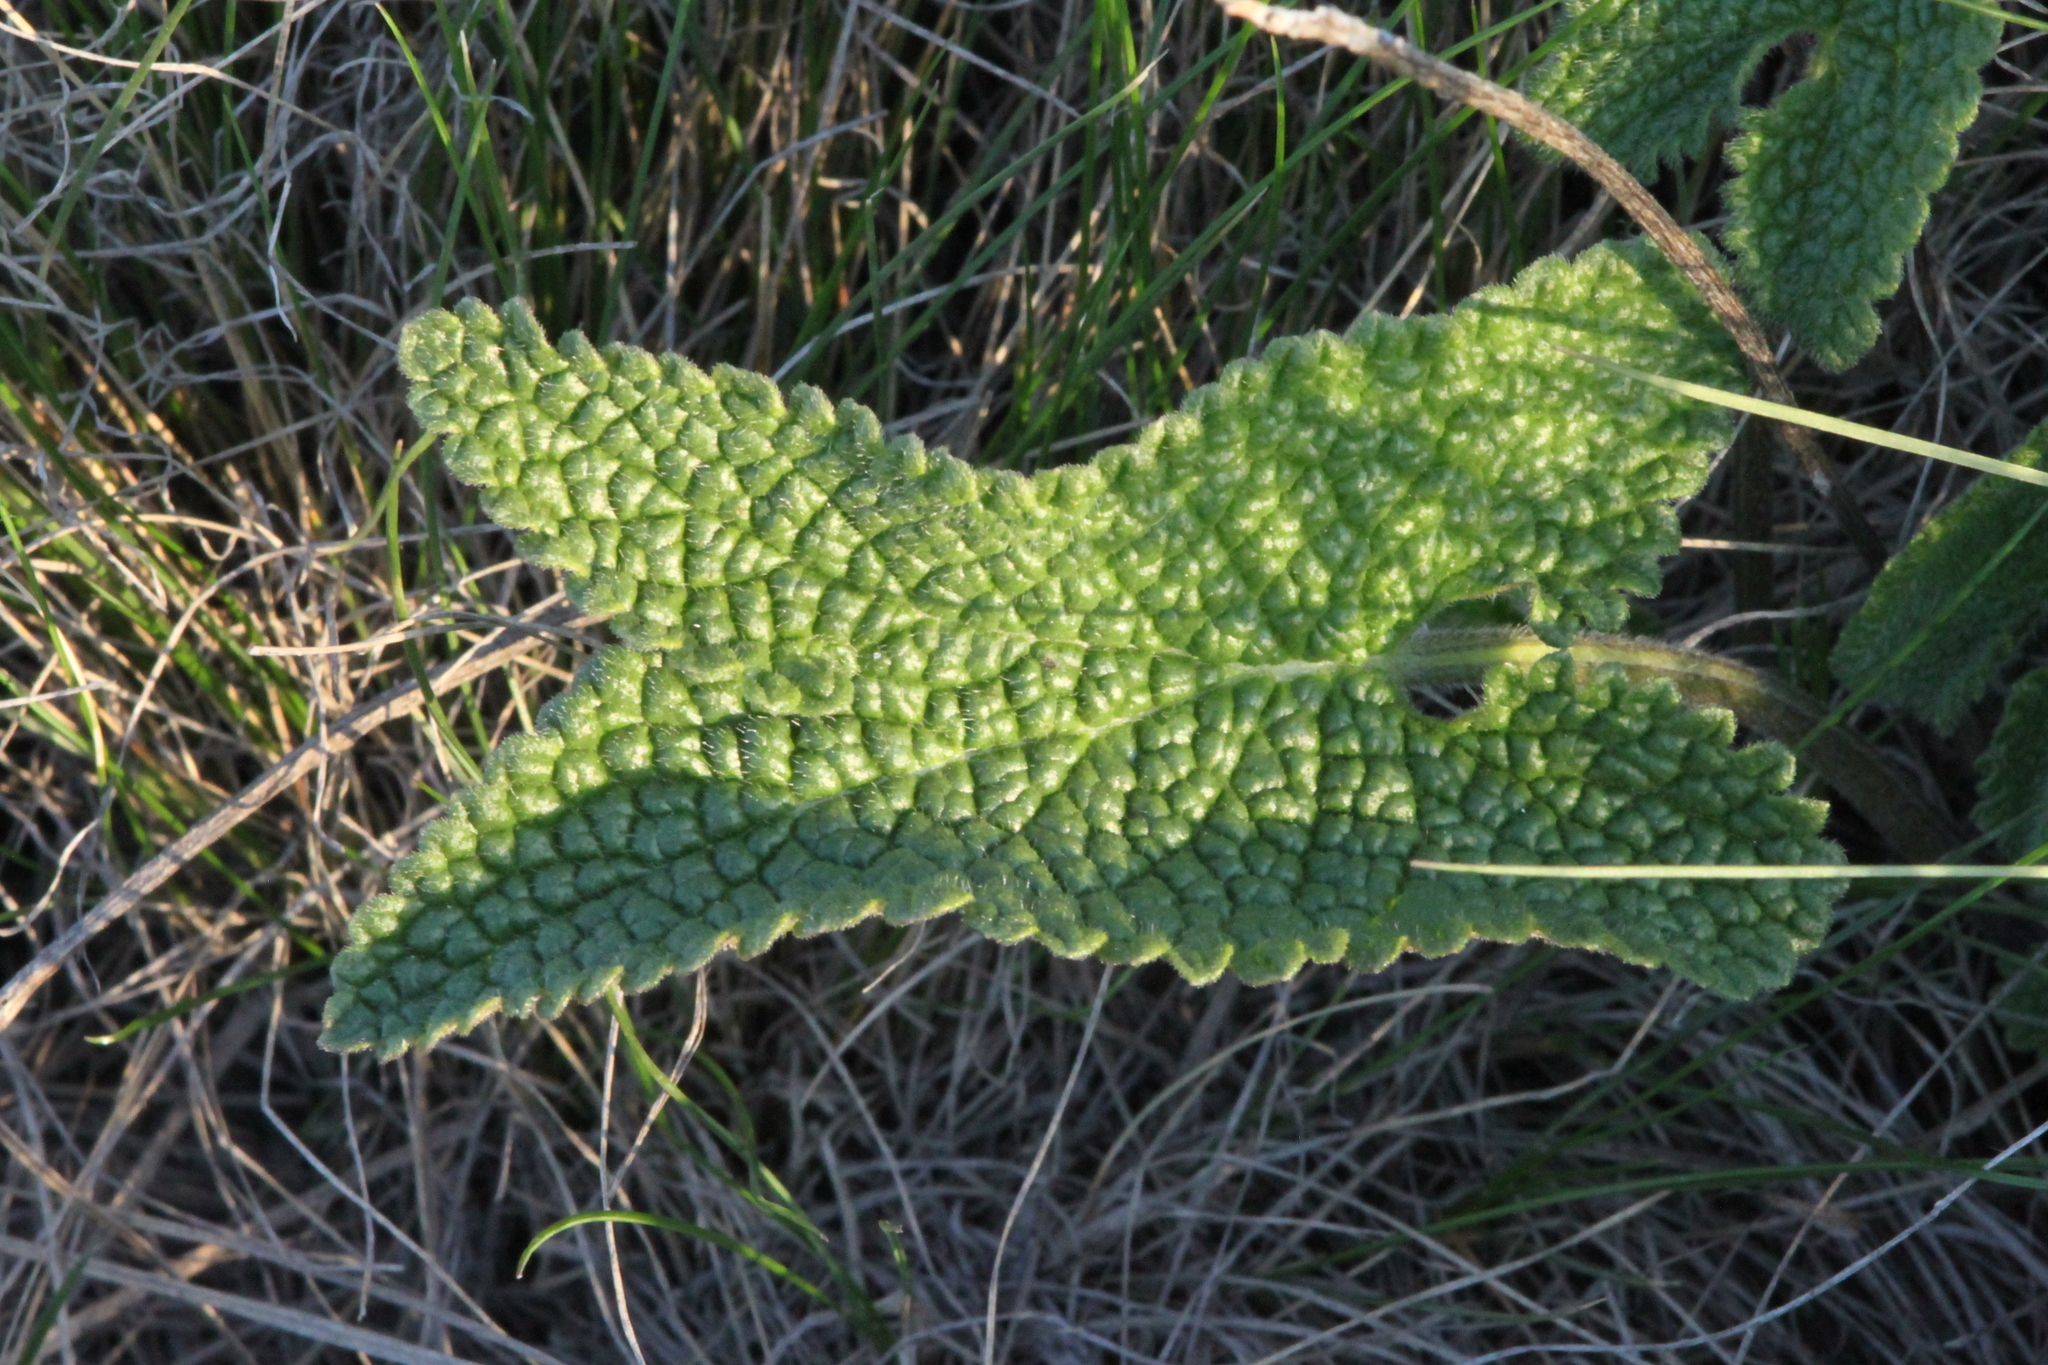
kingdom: Plantae
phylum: Tracheophyta
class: Magnoliopsida
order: Lamiales
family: Lamiaceae
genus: Phlomoides
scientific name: Phlomoides tuberosa
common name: Tuberous jerusalem sage
